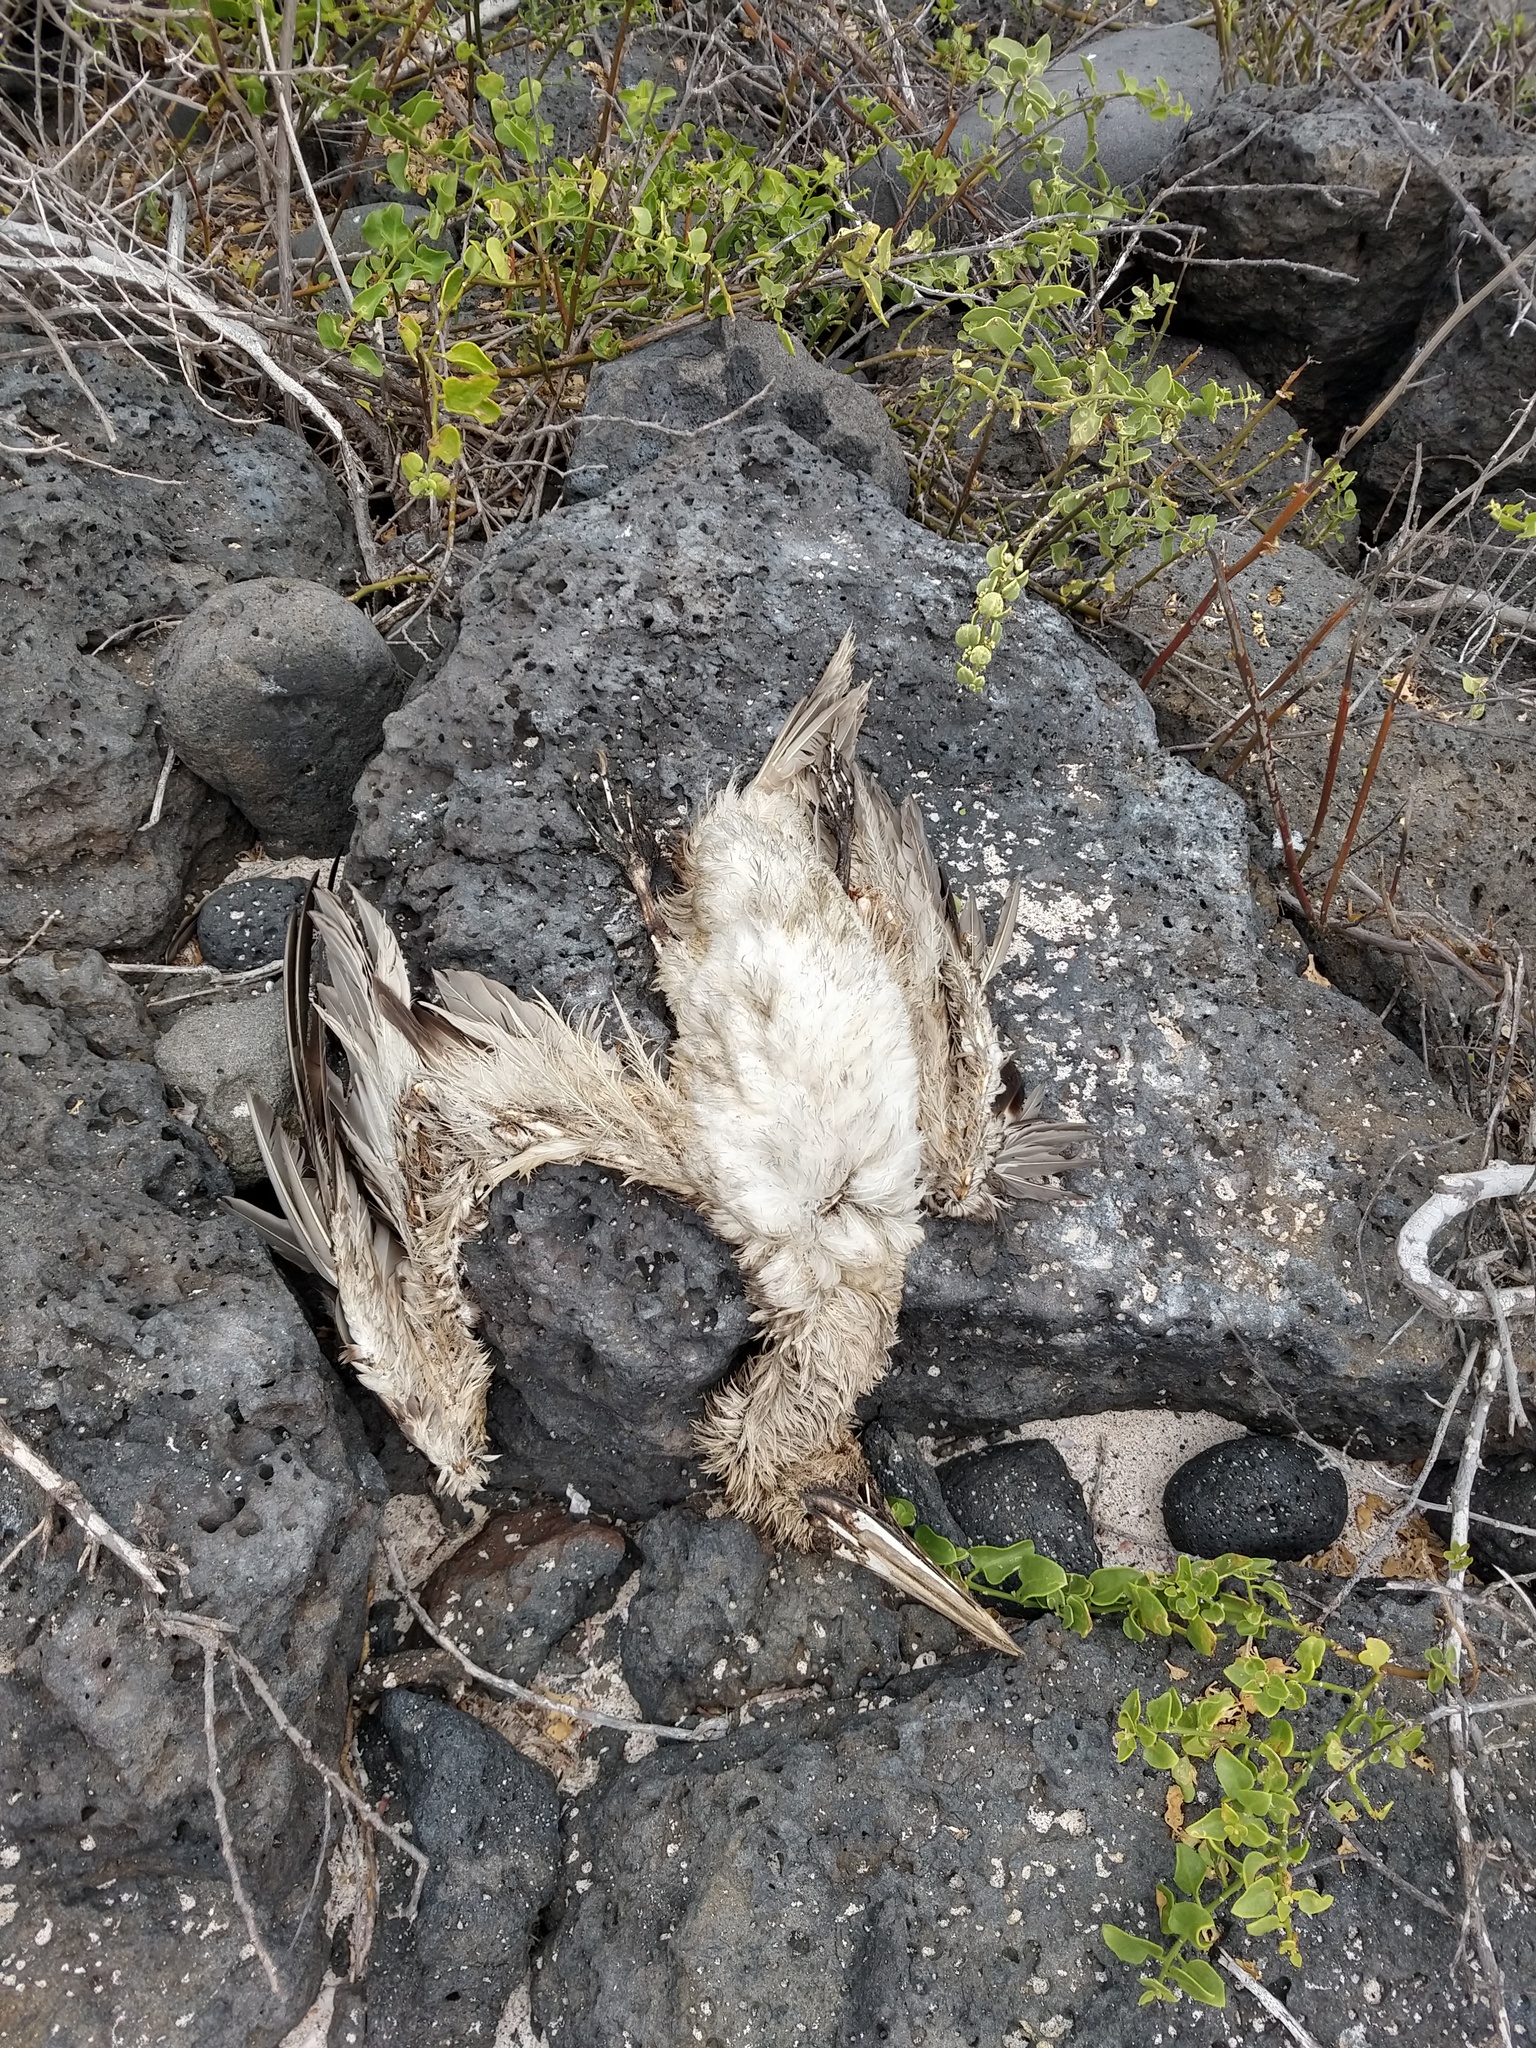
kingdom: Animalia
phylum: Chordata
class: Aves
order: Suliformes
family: Sulidae
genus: Sula
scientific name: Sula granti
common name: Nazca booby
